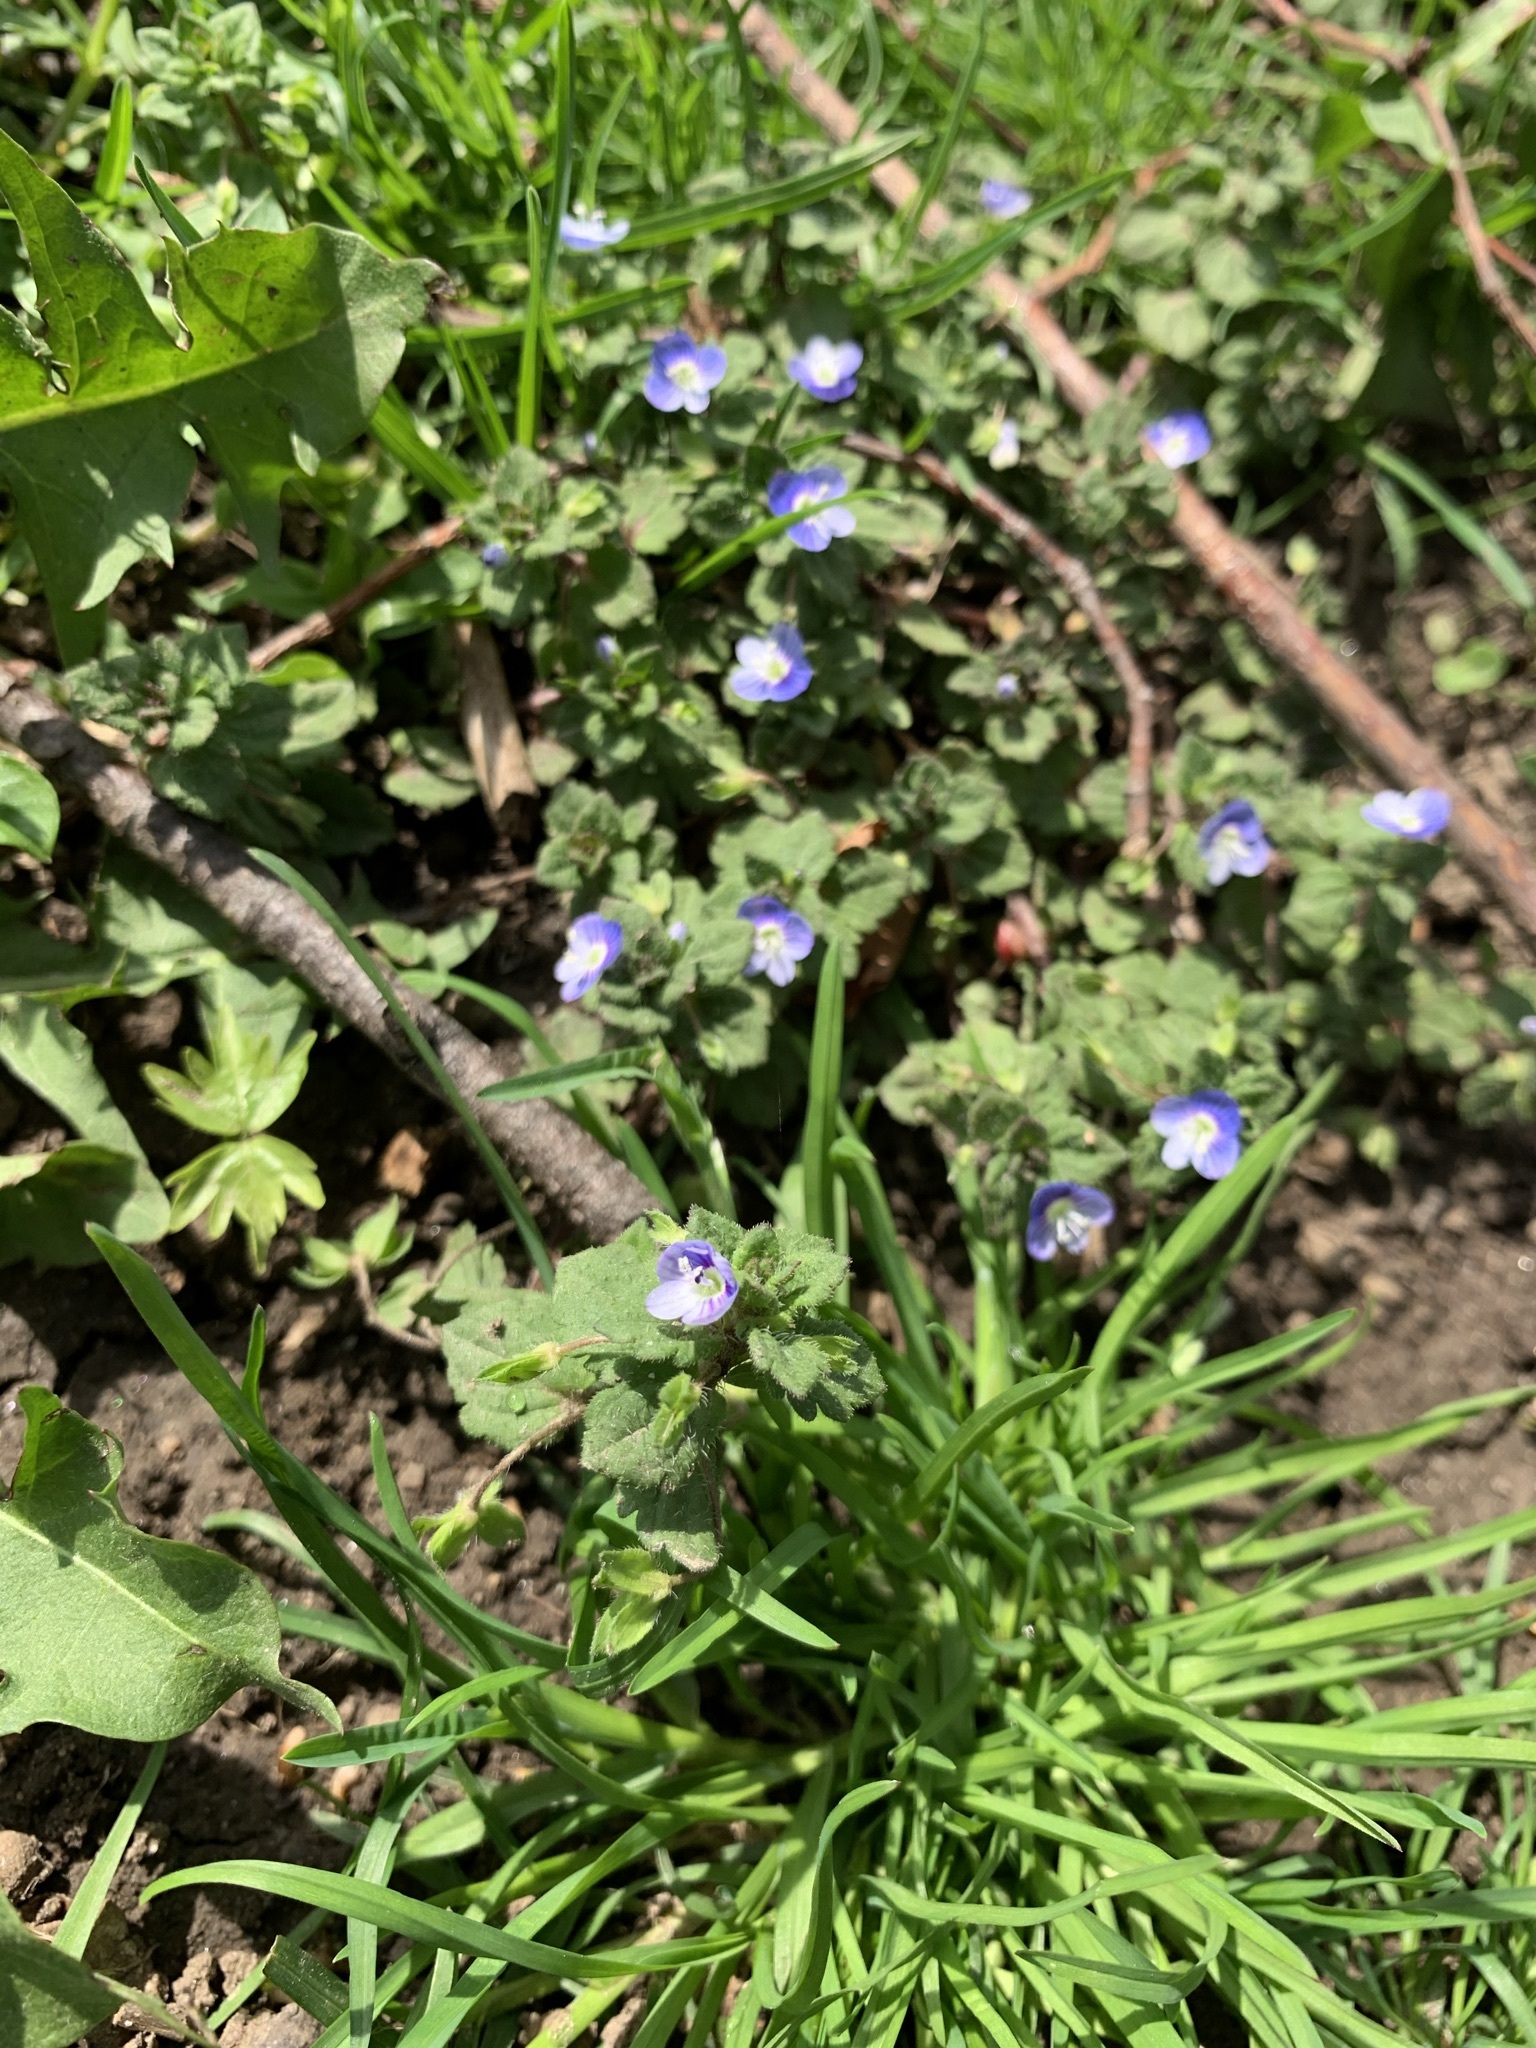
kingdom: Plantae
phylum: Tracheophyta
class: Magnoliopsida
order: Lamiales
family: Plantaginaceae
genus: Veronica
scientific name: Veronica persica
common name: Common field-speedwell
